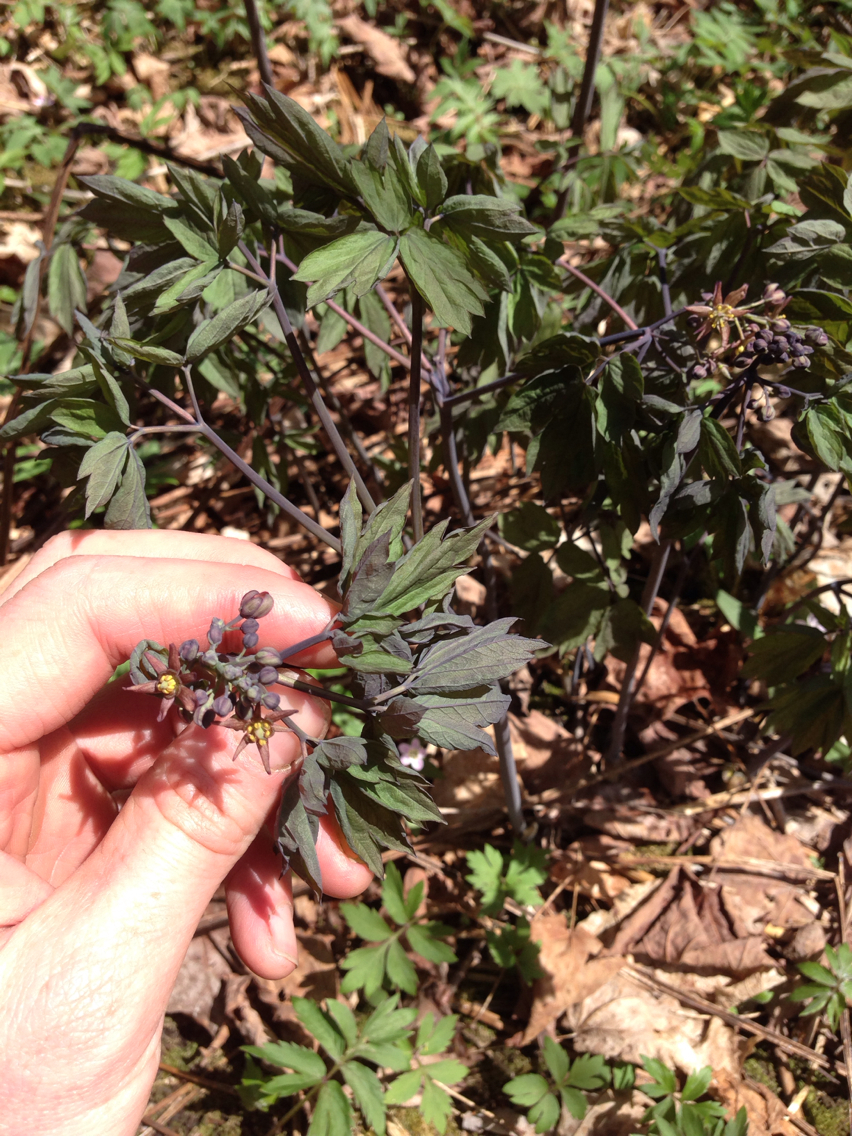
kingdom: Plantae
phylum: Tracheophyta
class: Magnoliopsida
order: Ranunculales
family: Berberidaceae
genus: Caulophyllum
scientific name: Caulophyllum thalictroides
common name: Blue cohosh
